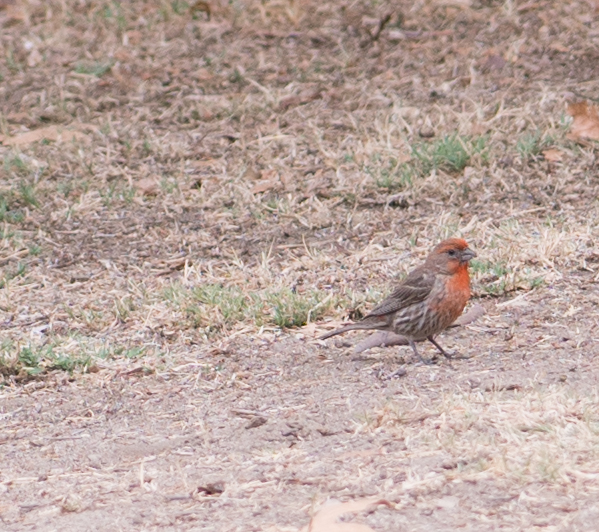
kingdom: Animalia
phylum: Chordata
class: Aves
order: Passeriformes
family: Fringillidae
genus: Haemorhous
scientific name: Haemorhous mexicanus
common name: House finch
